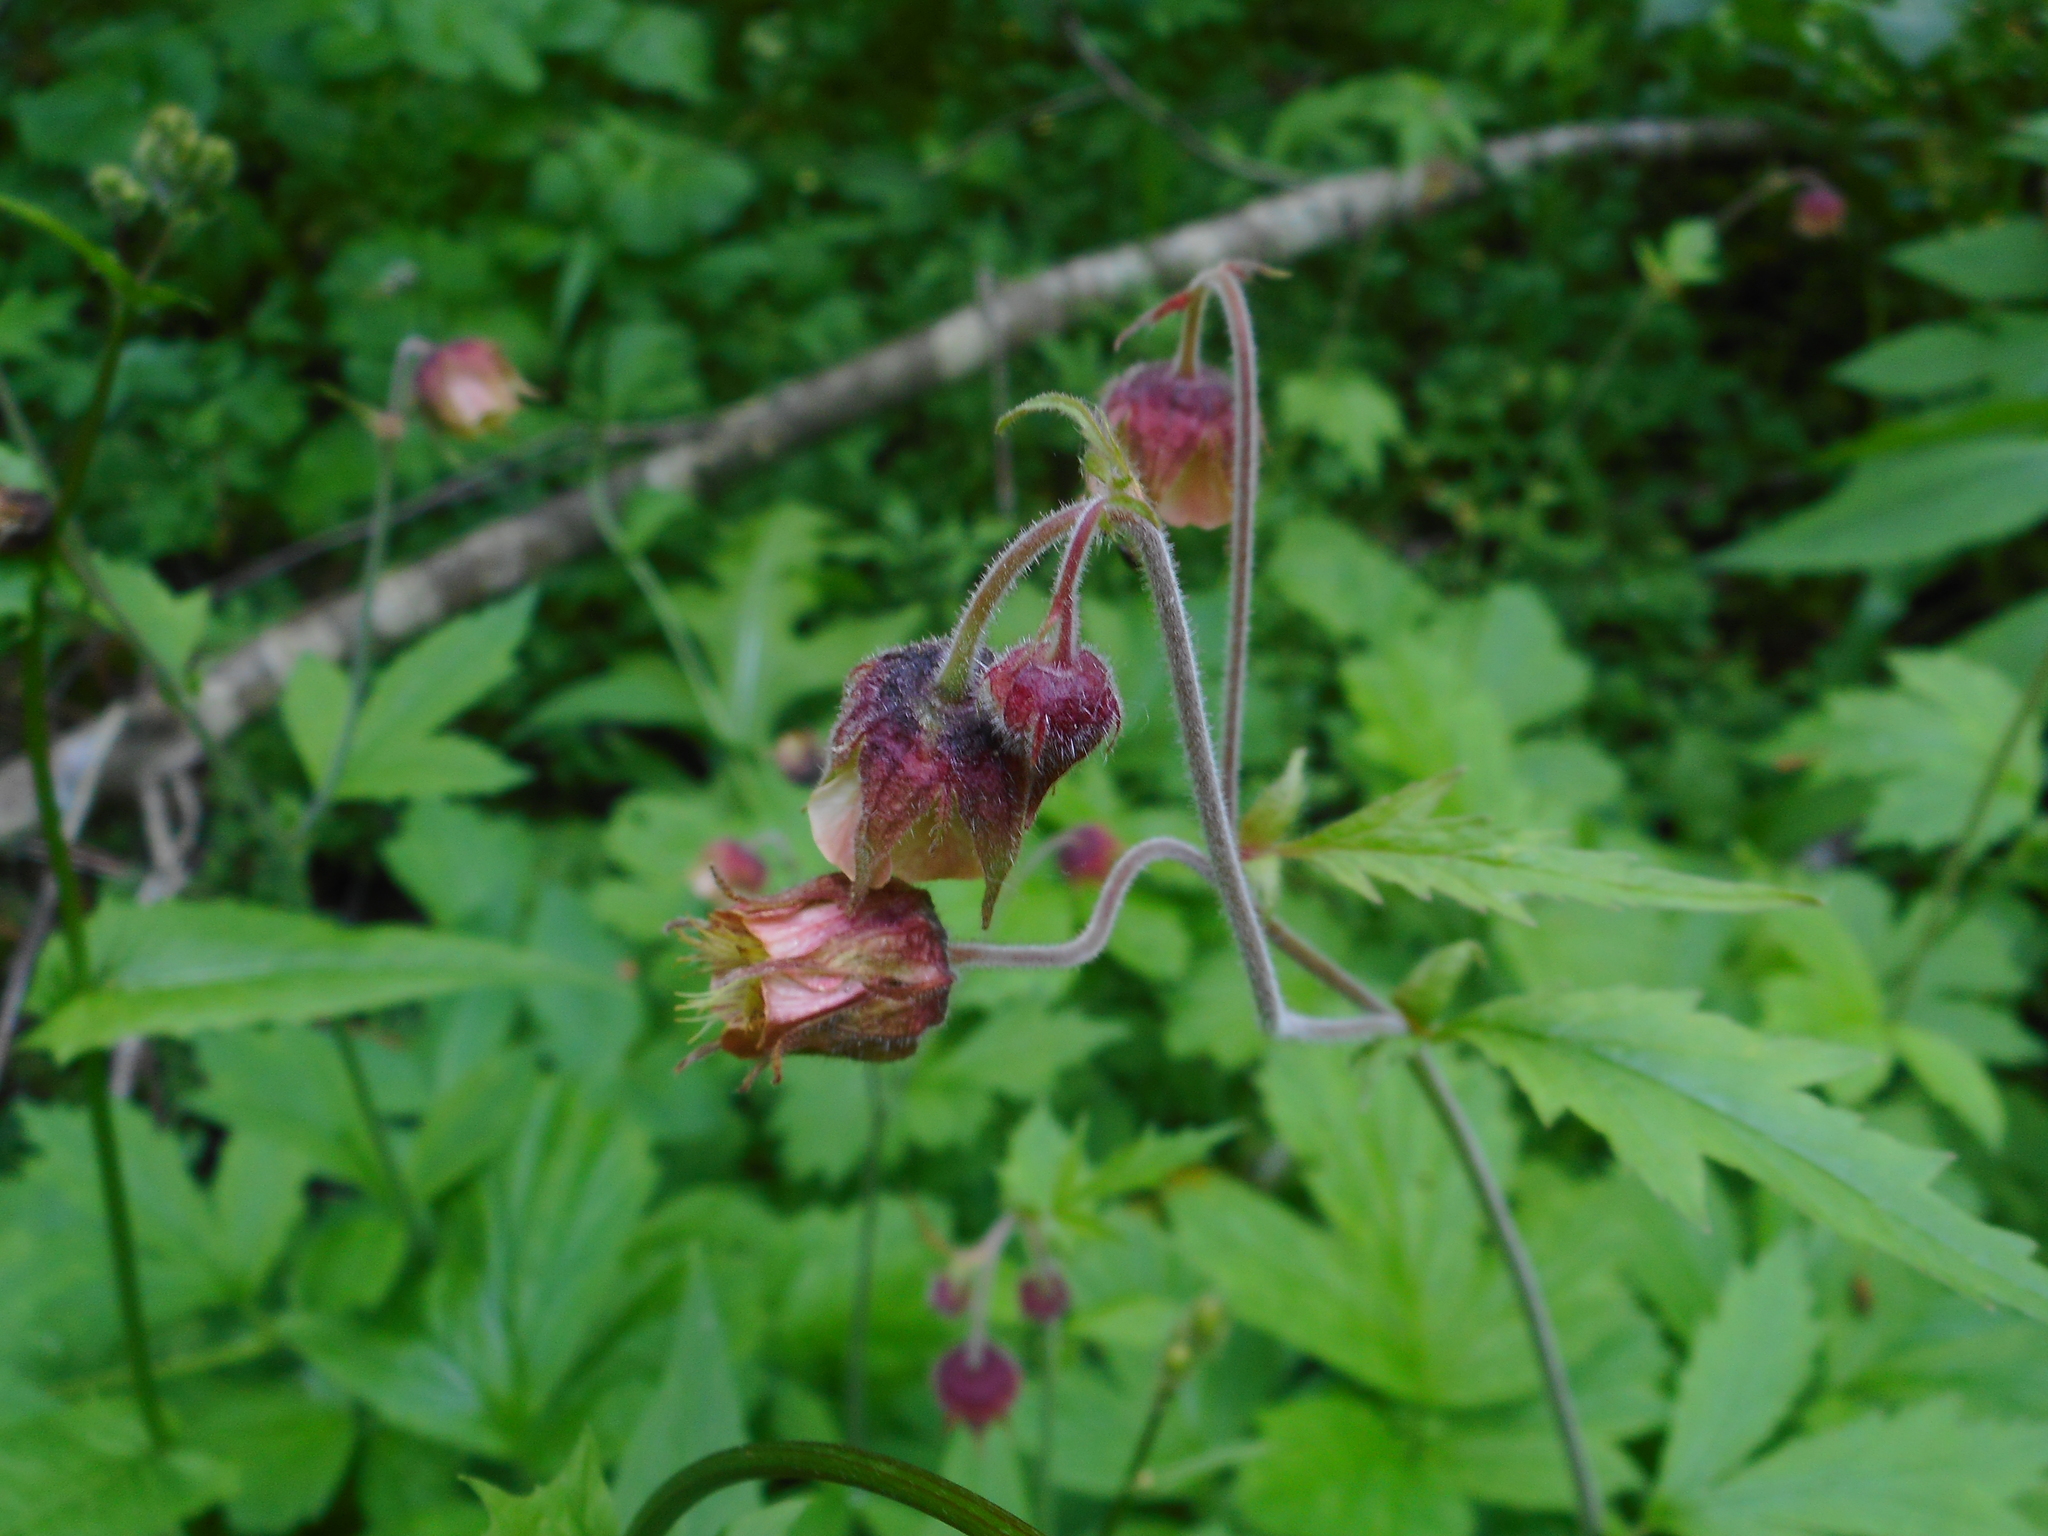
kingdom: Plantae
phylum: Tracheophyta
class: Magnoliopsida
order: Rosales
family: Rosaceae
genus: Geum
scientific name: Geum rivale
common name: Water avens
